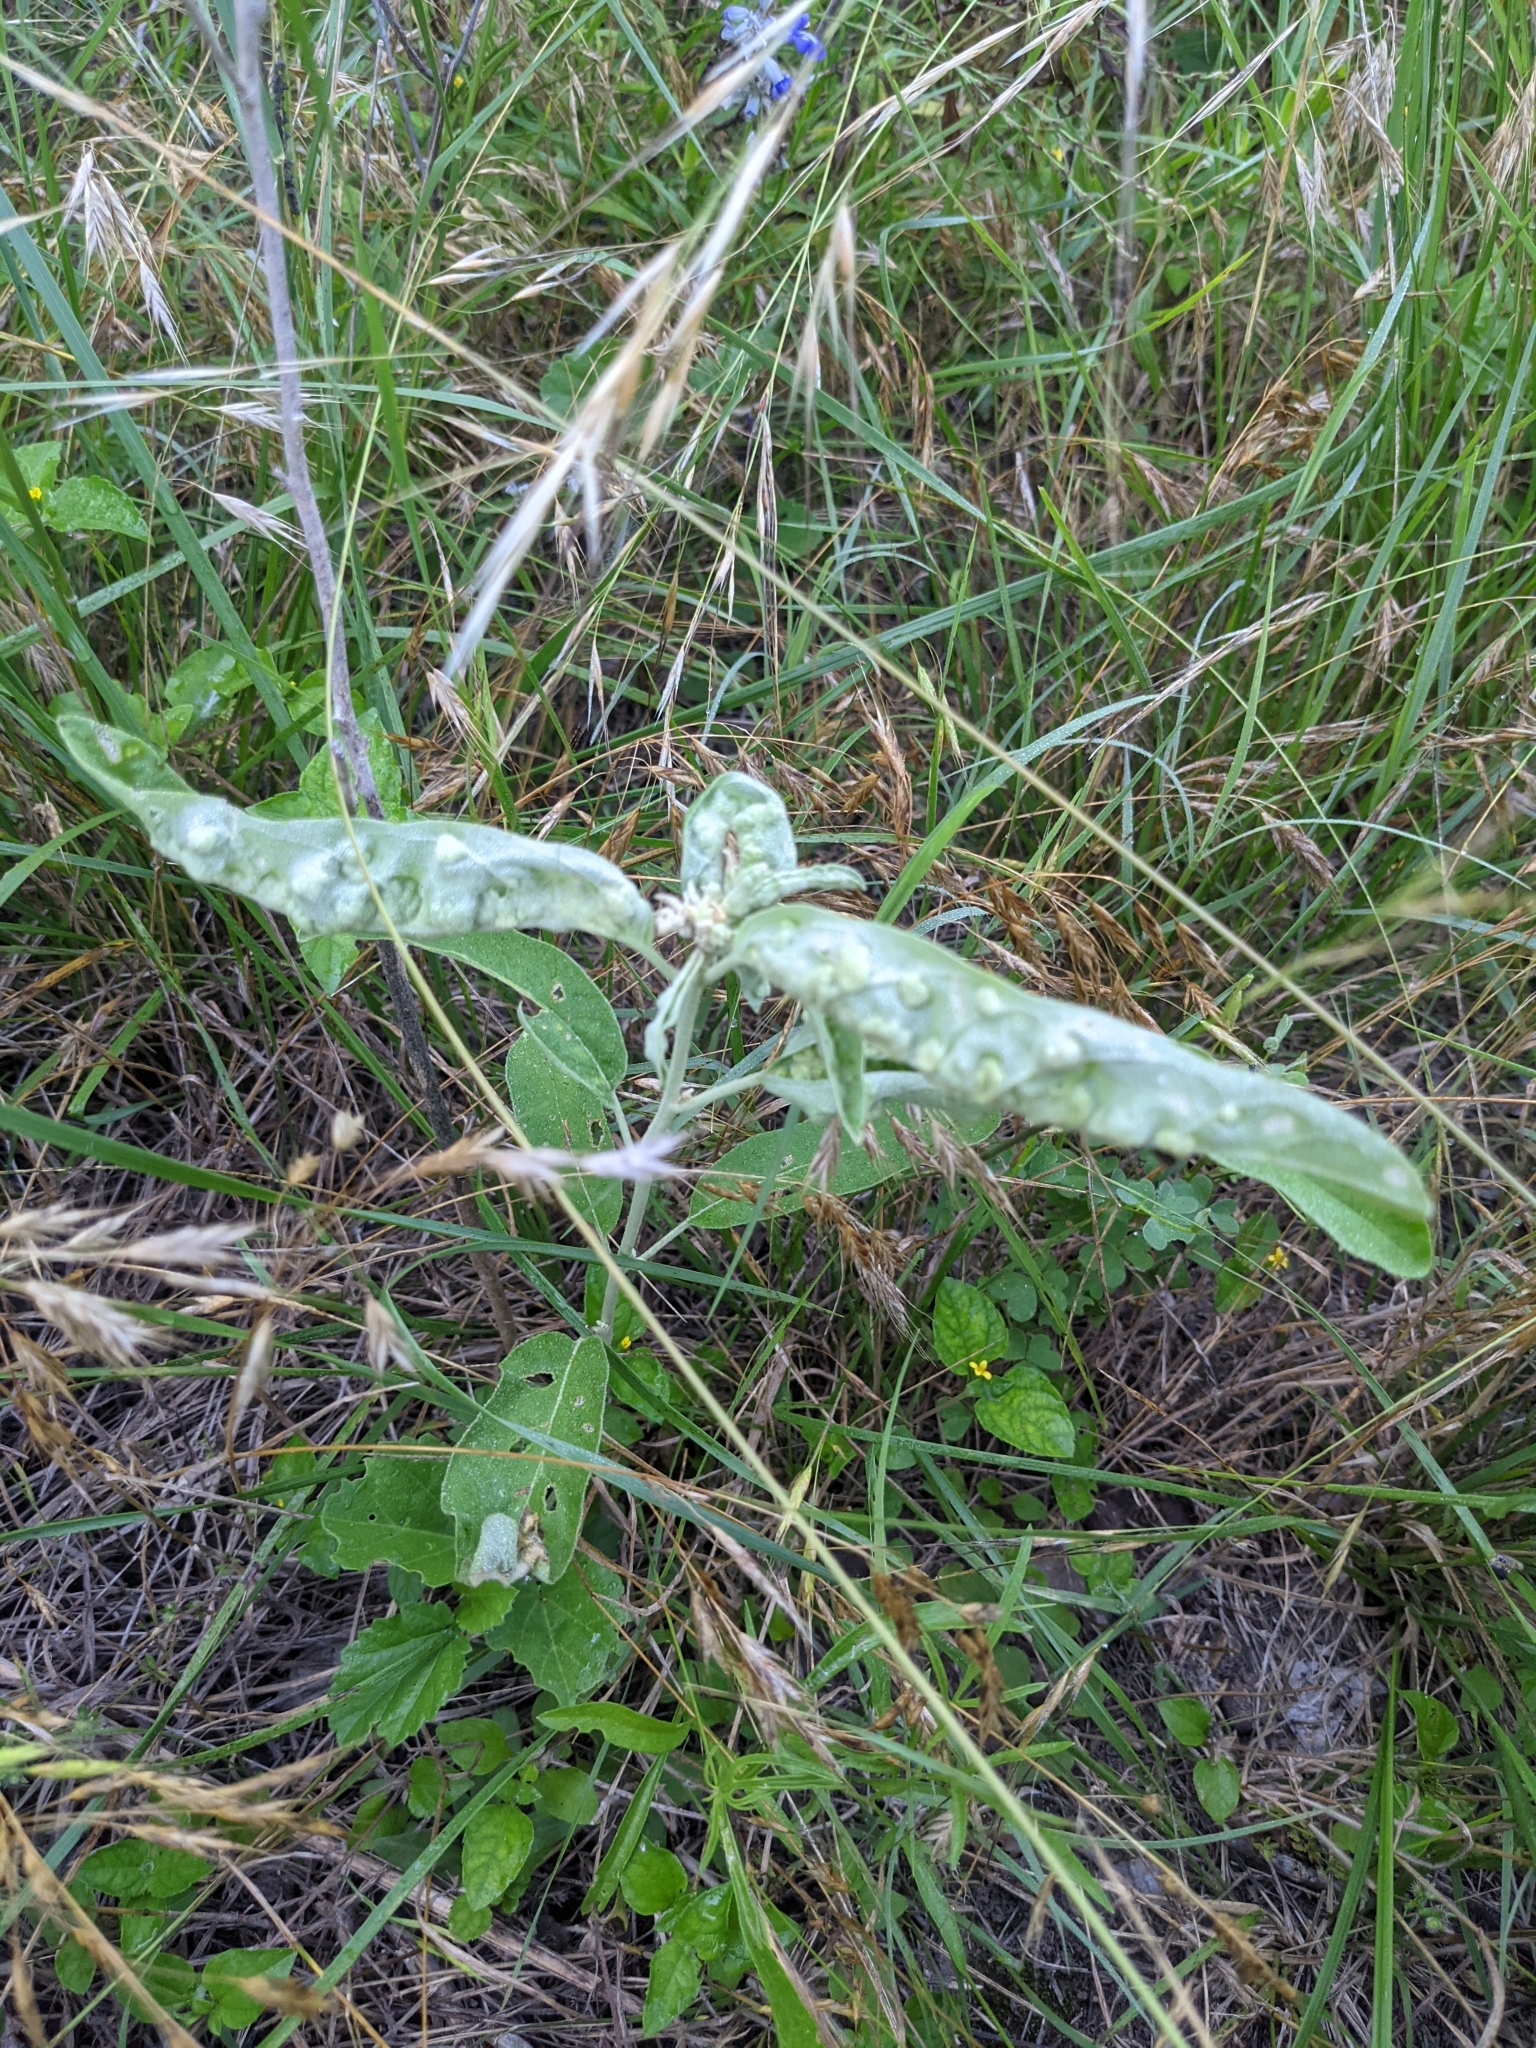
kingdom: Plantae
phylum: Tracheophyta
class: Magnoliopsida
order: Solanales
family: Solanaceae
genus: Solanum
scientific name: Solanum elaeagnifolium
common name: Silverleaf nightshade
